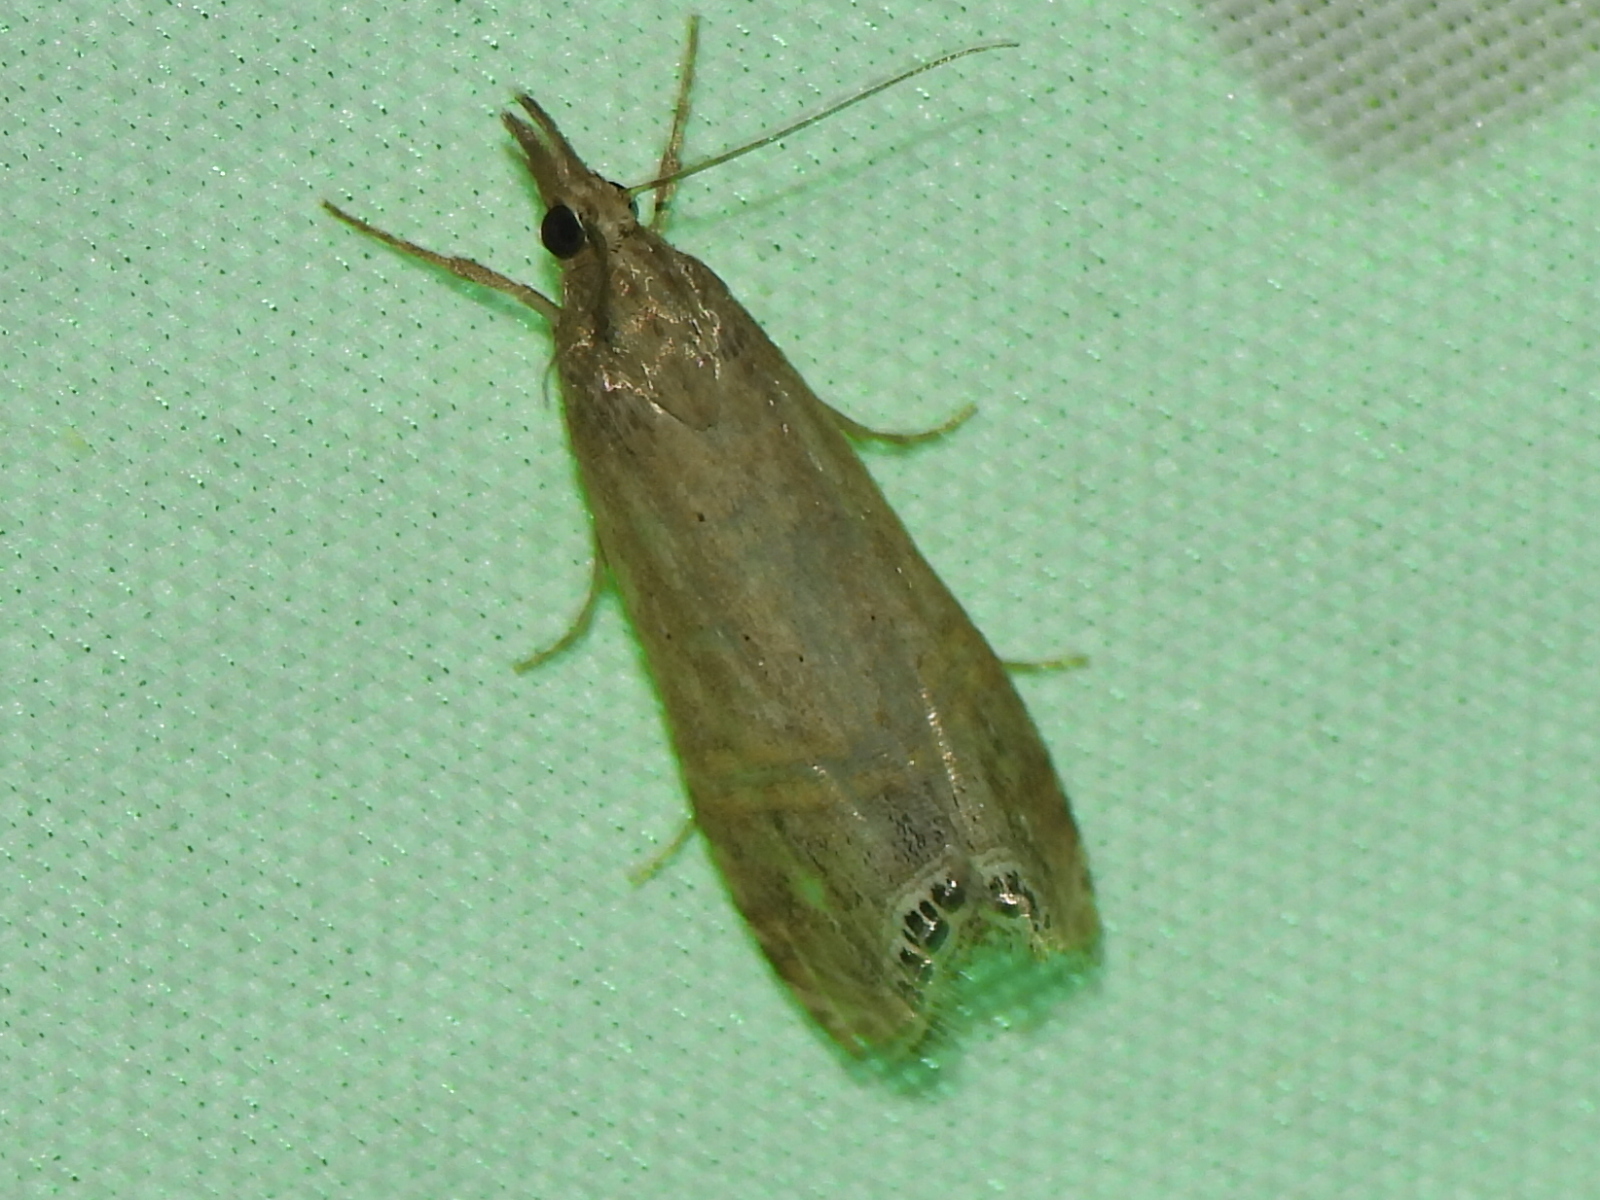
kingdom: Animalia
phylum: Arthropoda
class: Insecta
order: Lepidoptera
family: Crambidae
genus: Euchromius
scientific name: Euchromius ocellea
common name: Necklace veneer moth
